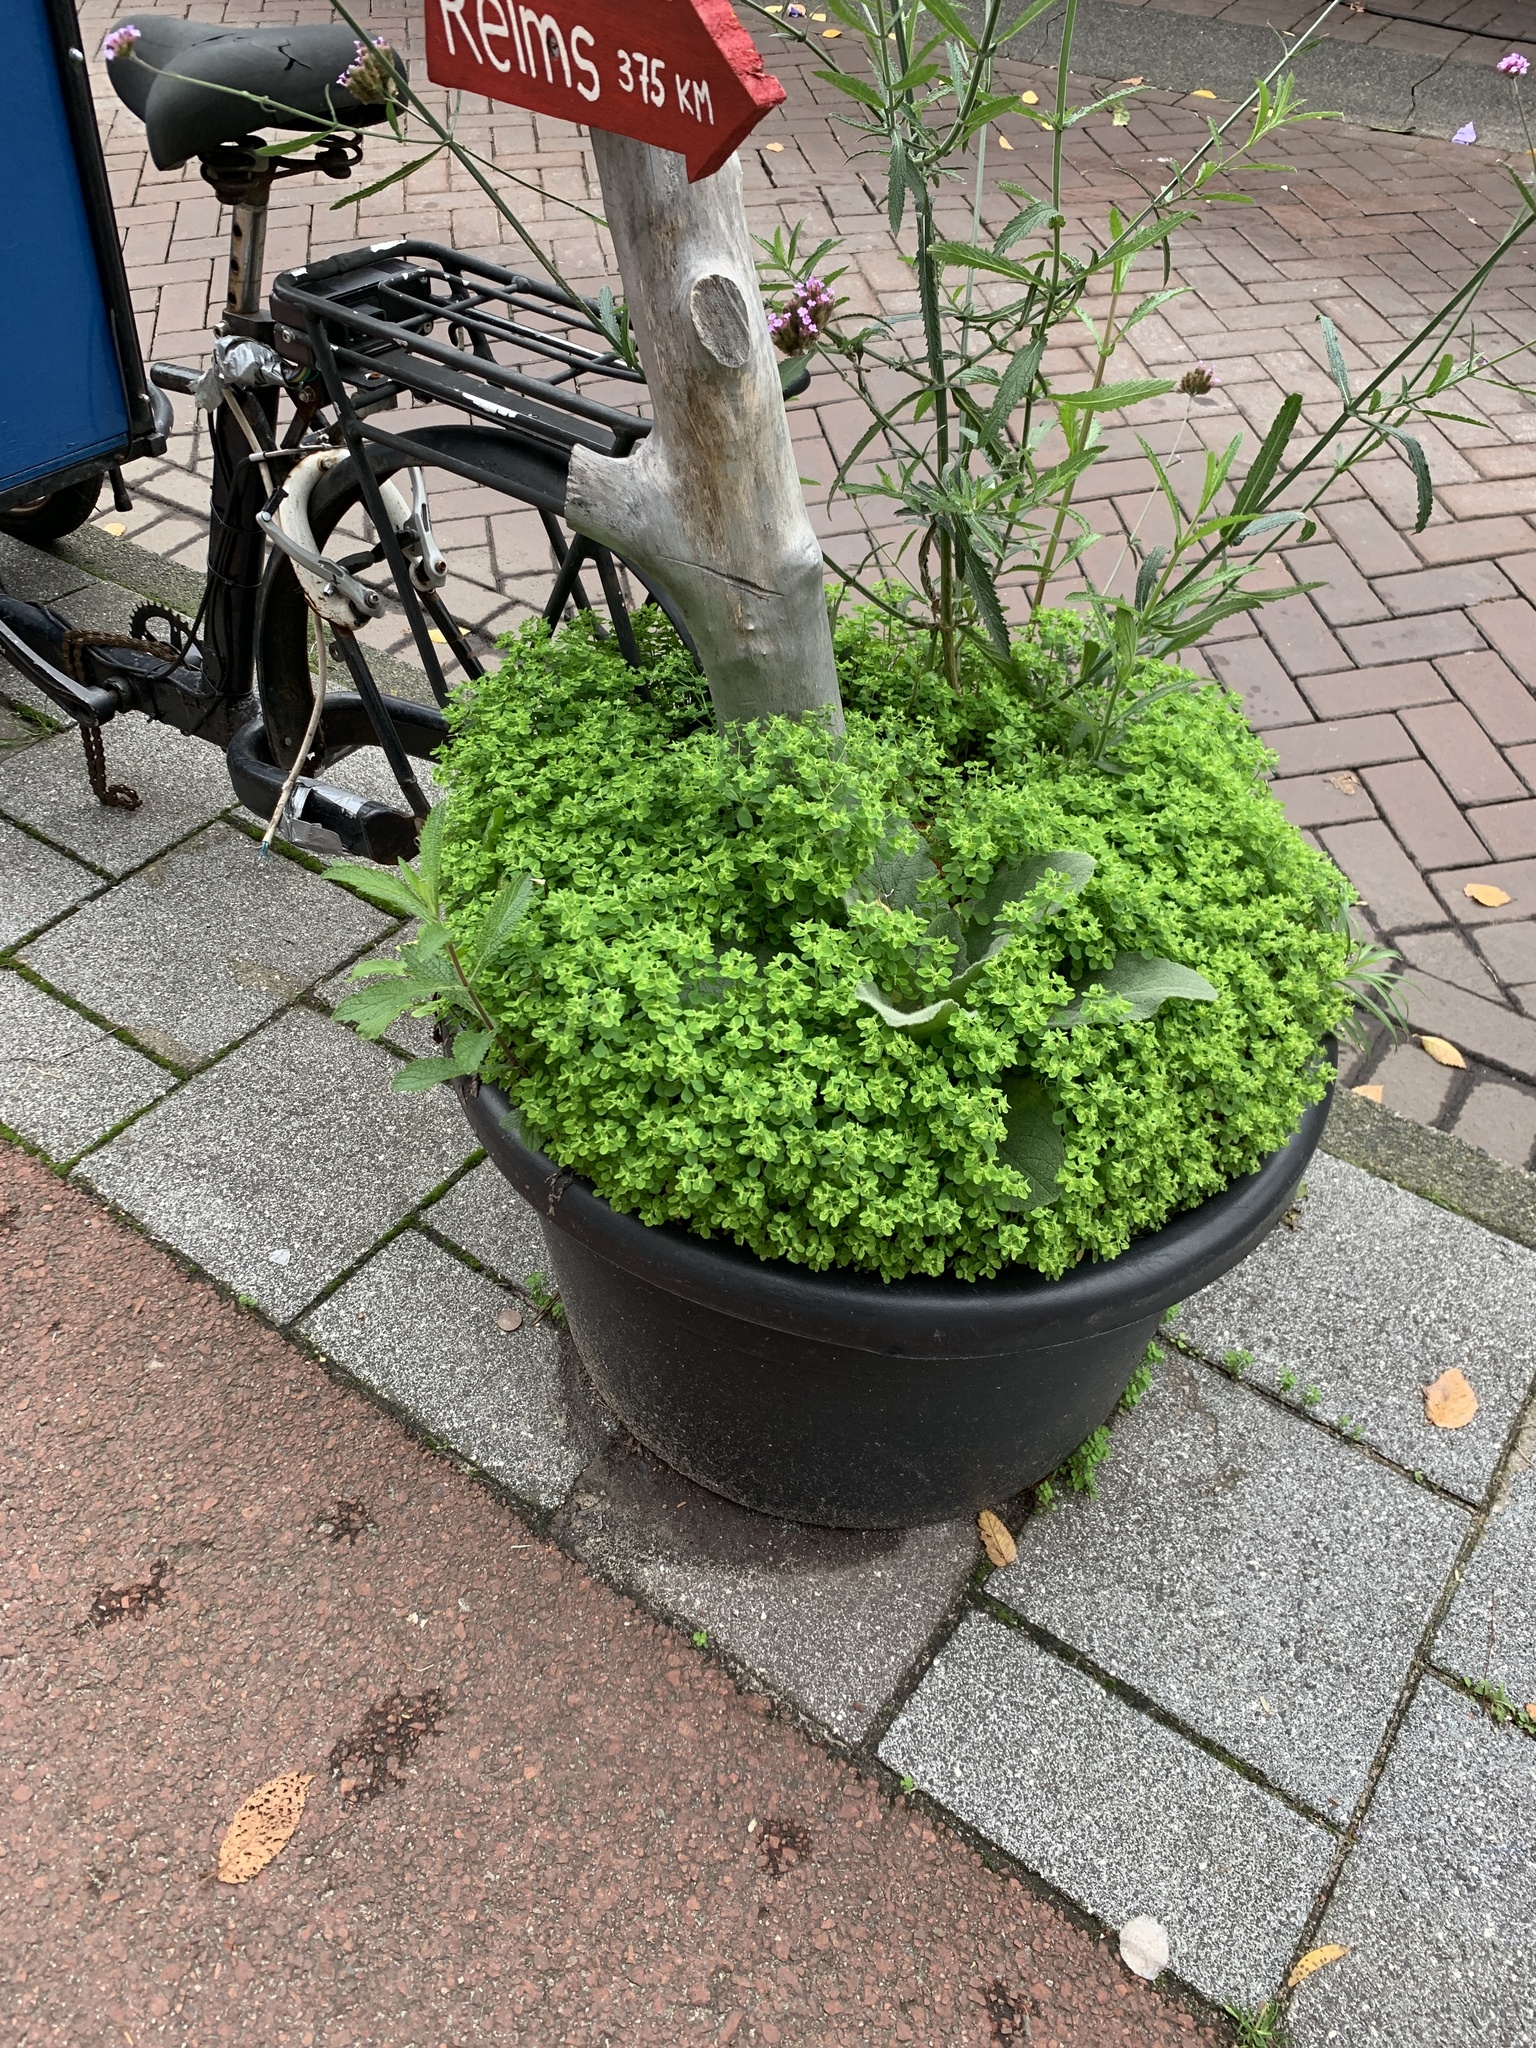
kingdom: Plantae
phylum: Tracheophyta
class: Magnoliopsida
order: Malpighiales
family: Euphorbiaceae
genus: Euphorbia
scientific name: Euphorbia peplus
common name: Petty spurge
